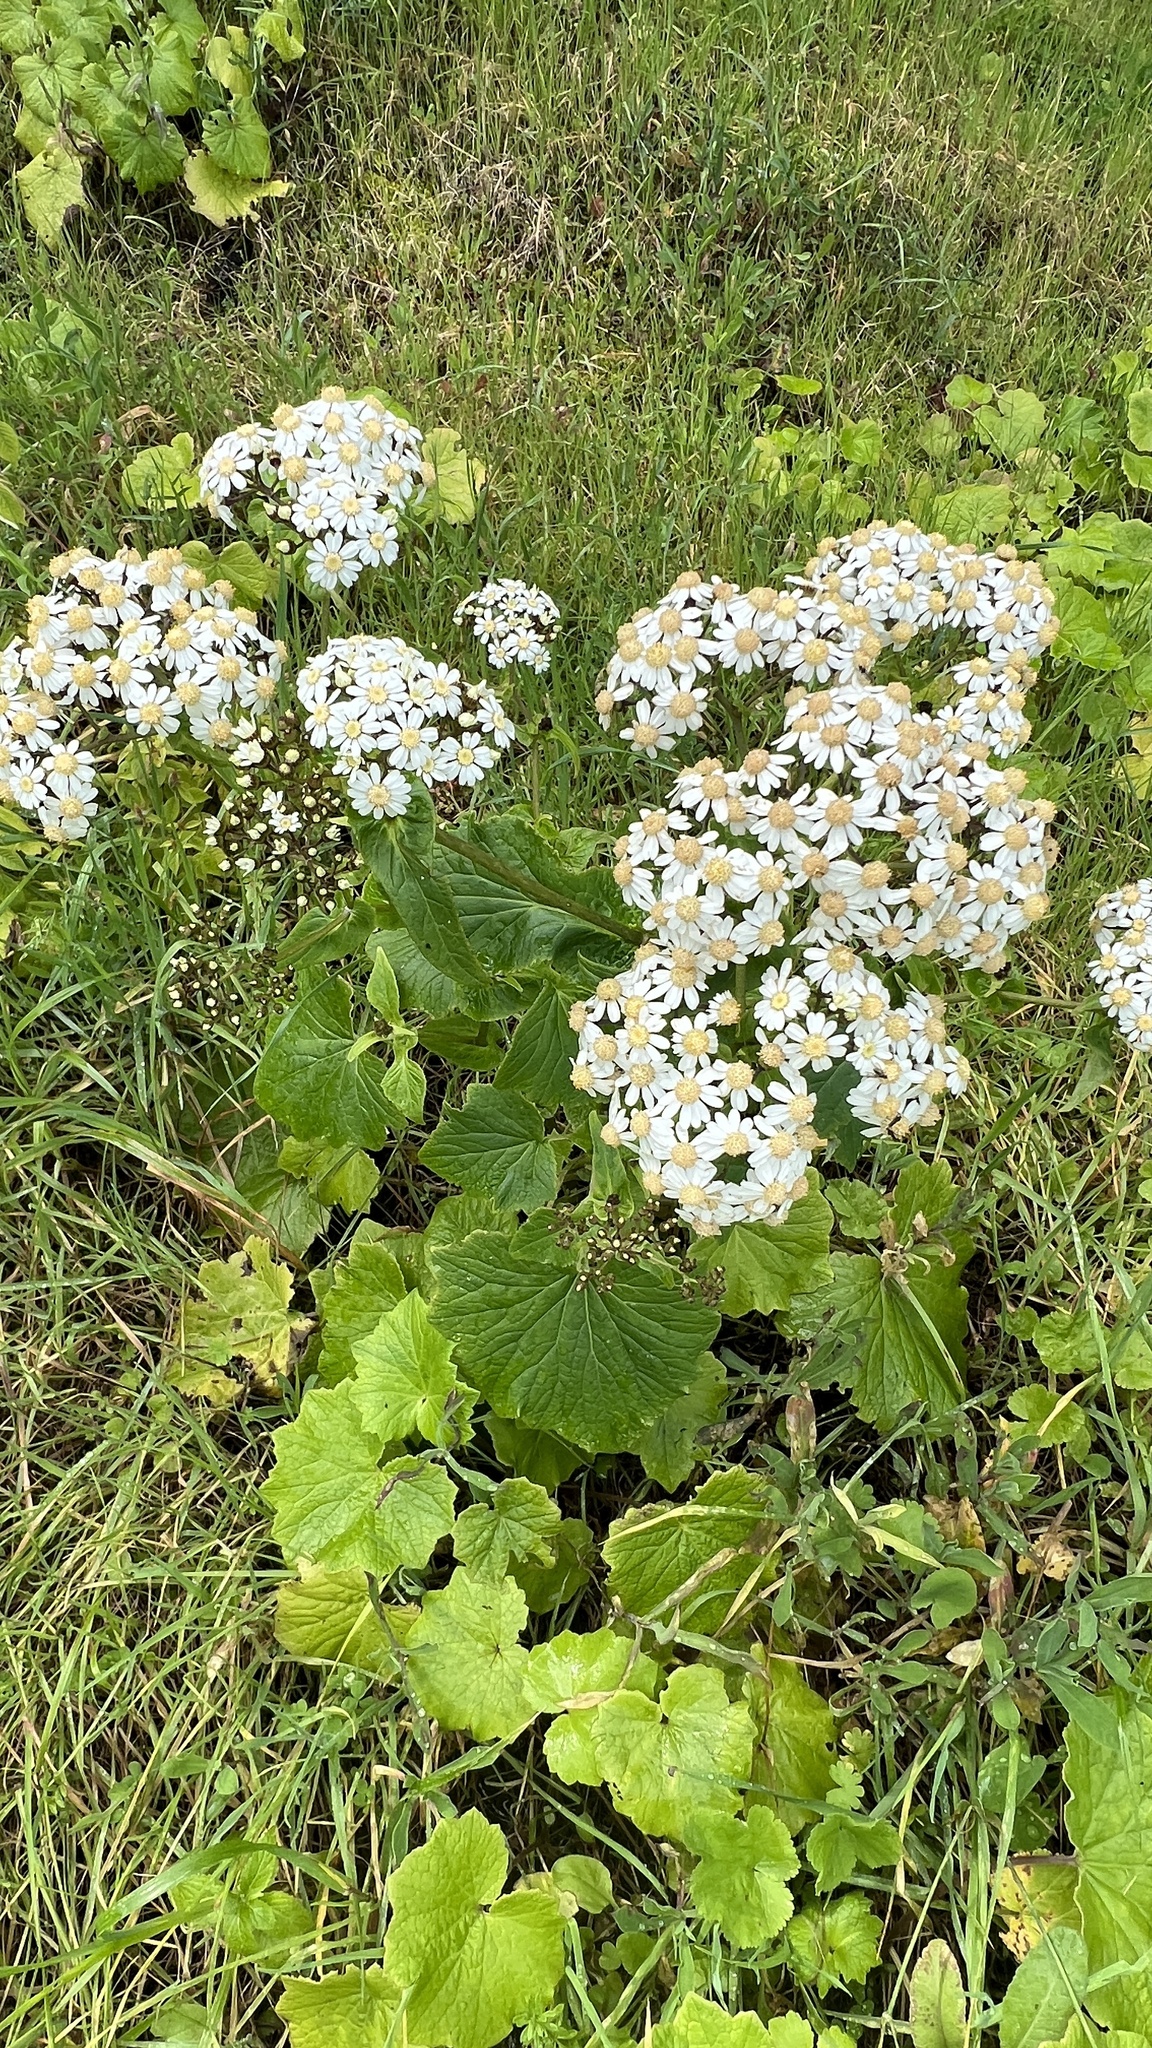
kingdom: Plantae
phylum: Tracheophyta
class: Magnoliopsida
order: Asterales
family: Asteraceae
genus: Pericallis
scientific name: Pericallis murrayi
